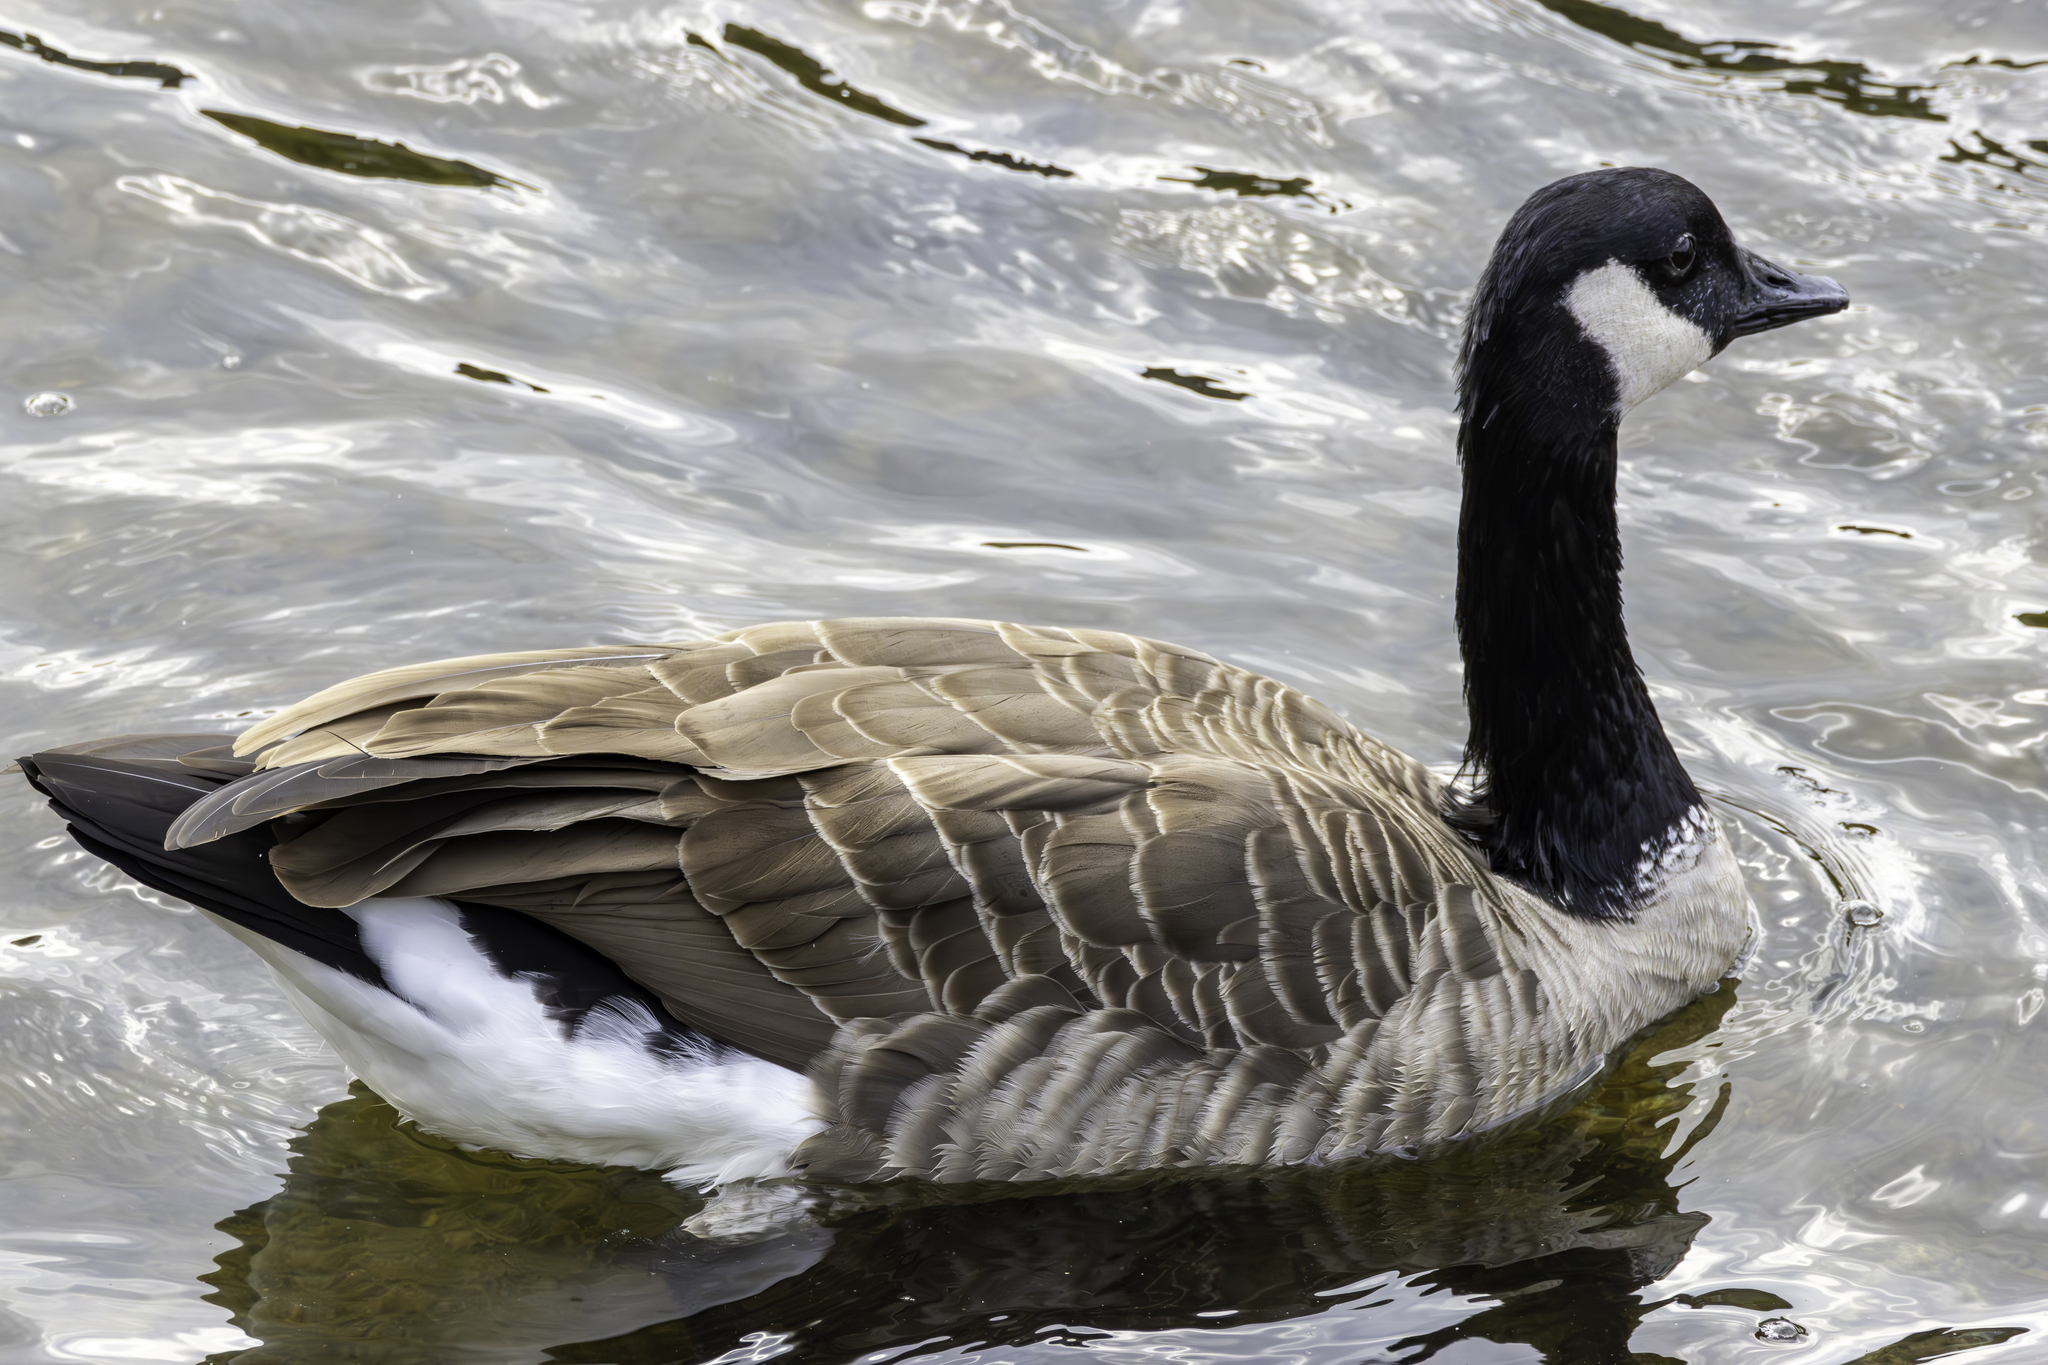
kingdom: Animalia
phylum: Chordata
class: Aves
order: Anseriformes
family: Anatidae
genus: Branta
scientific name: Branta canadensis
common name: Canada goose
